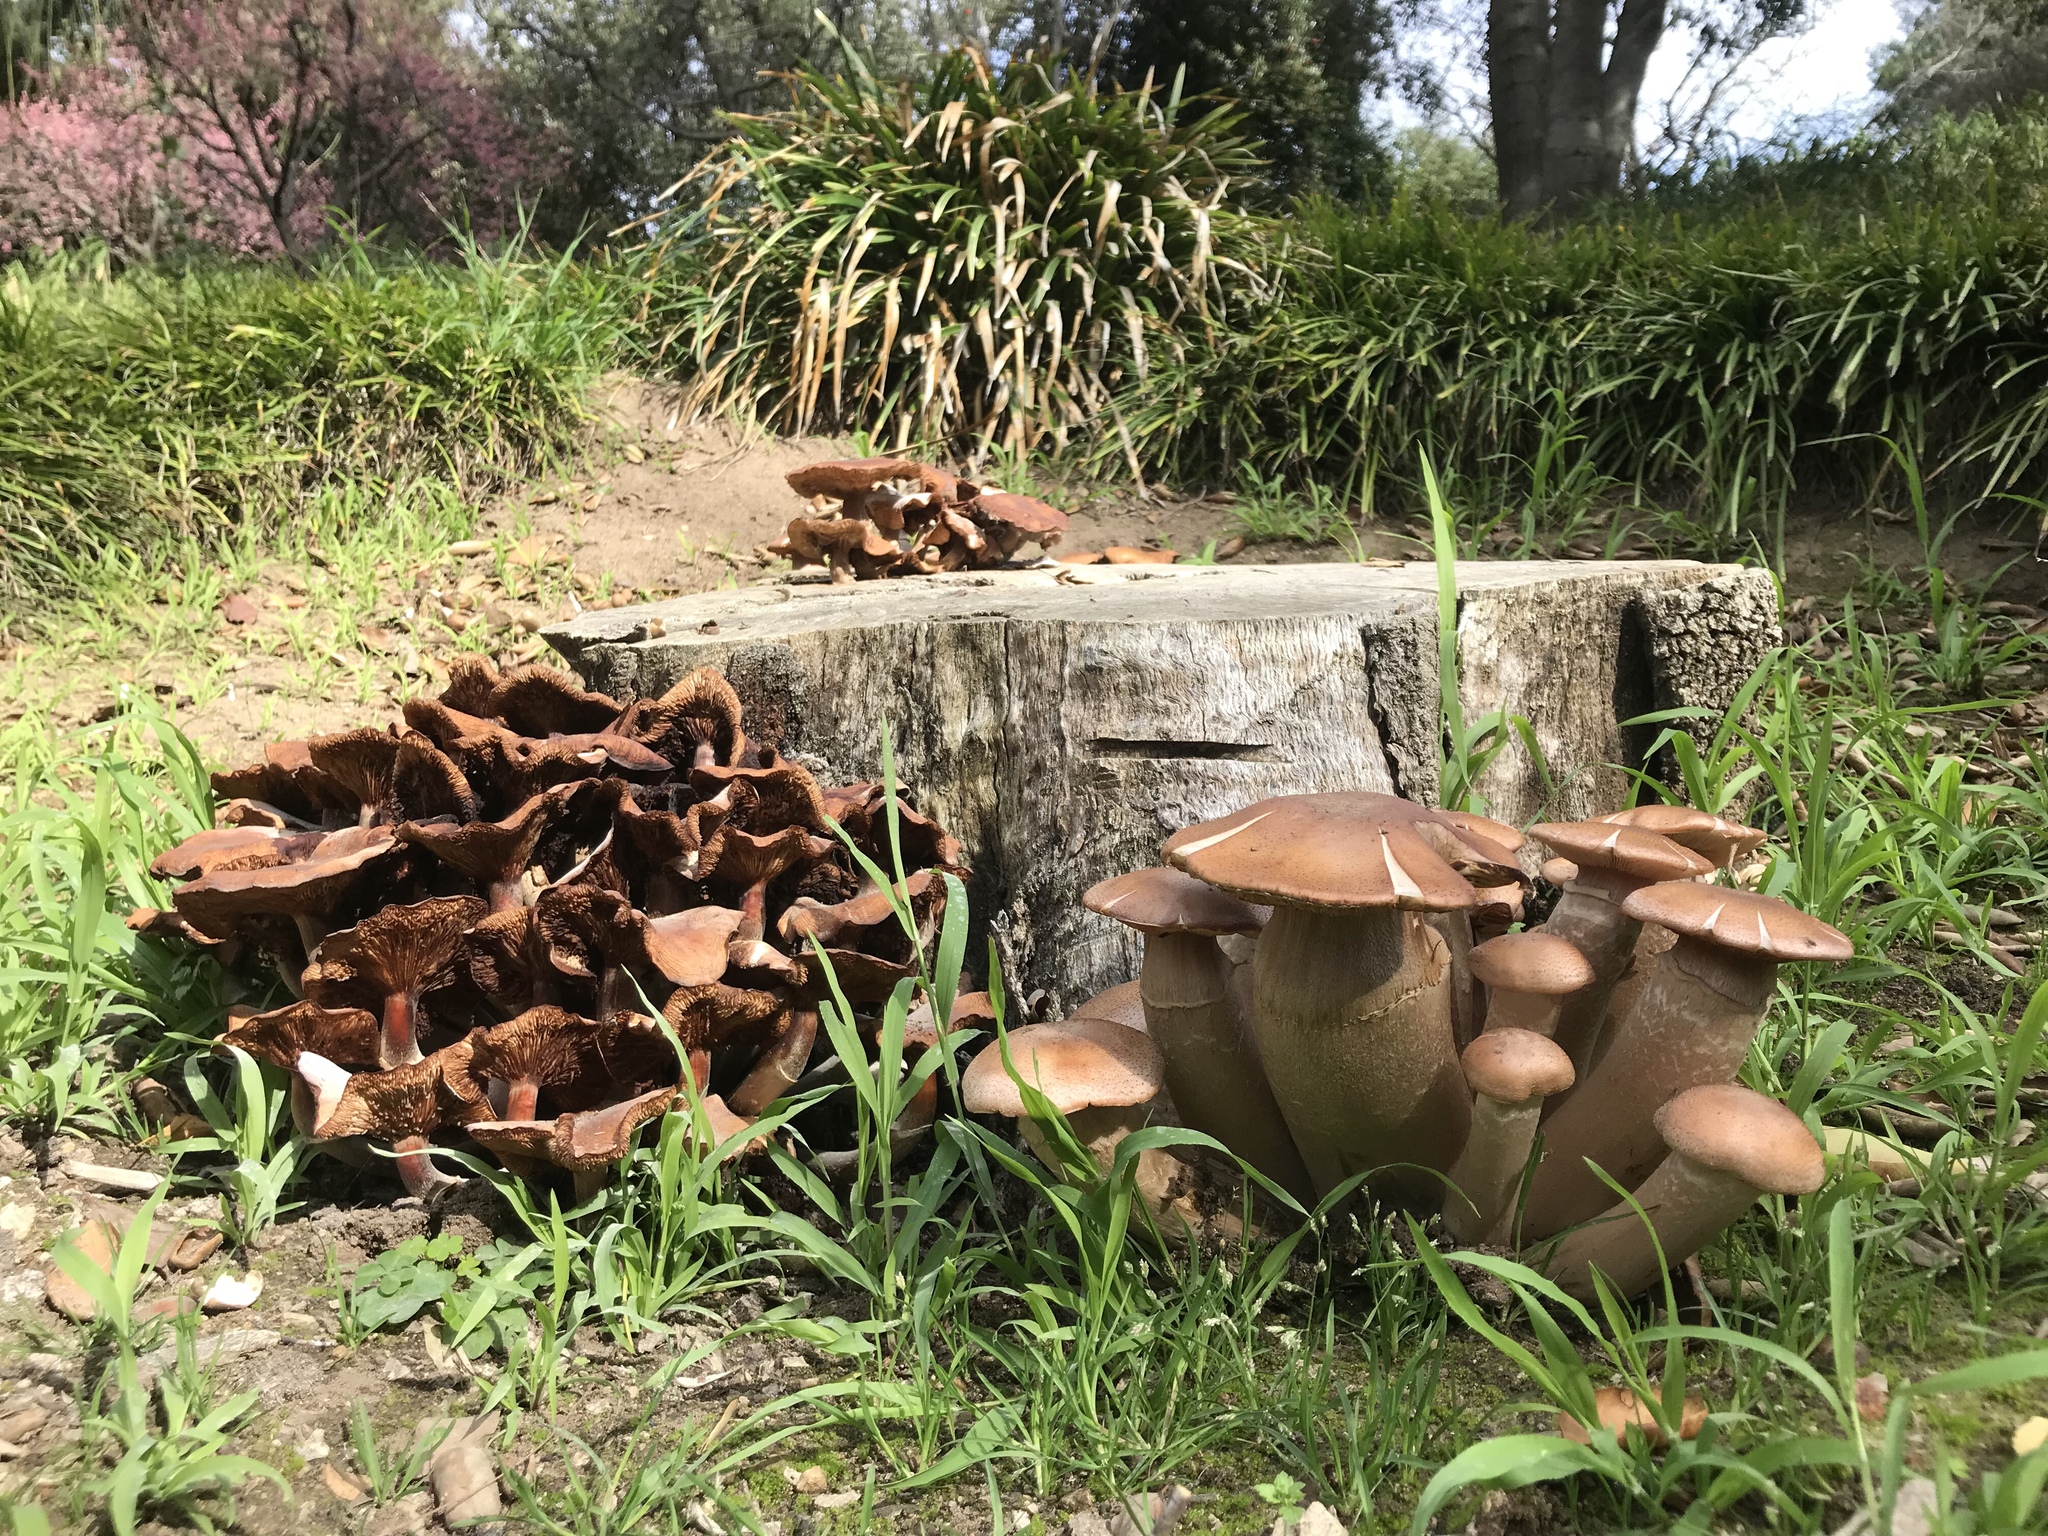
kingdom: Fungi
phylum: Basidiomycota
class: Agaricomycetes
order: Agaricales
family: Physalacriaceae
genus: Armillaria
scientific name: Armillaria mellea
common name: Honey fungus
